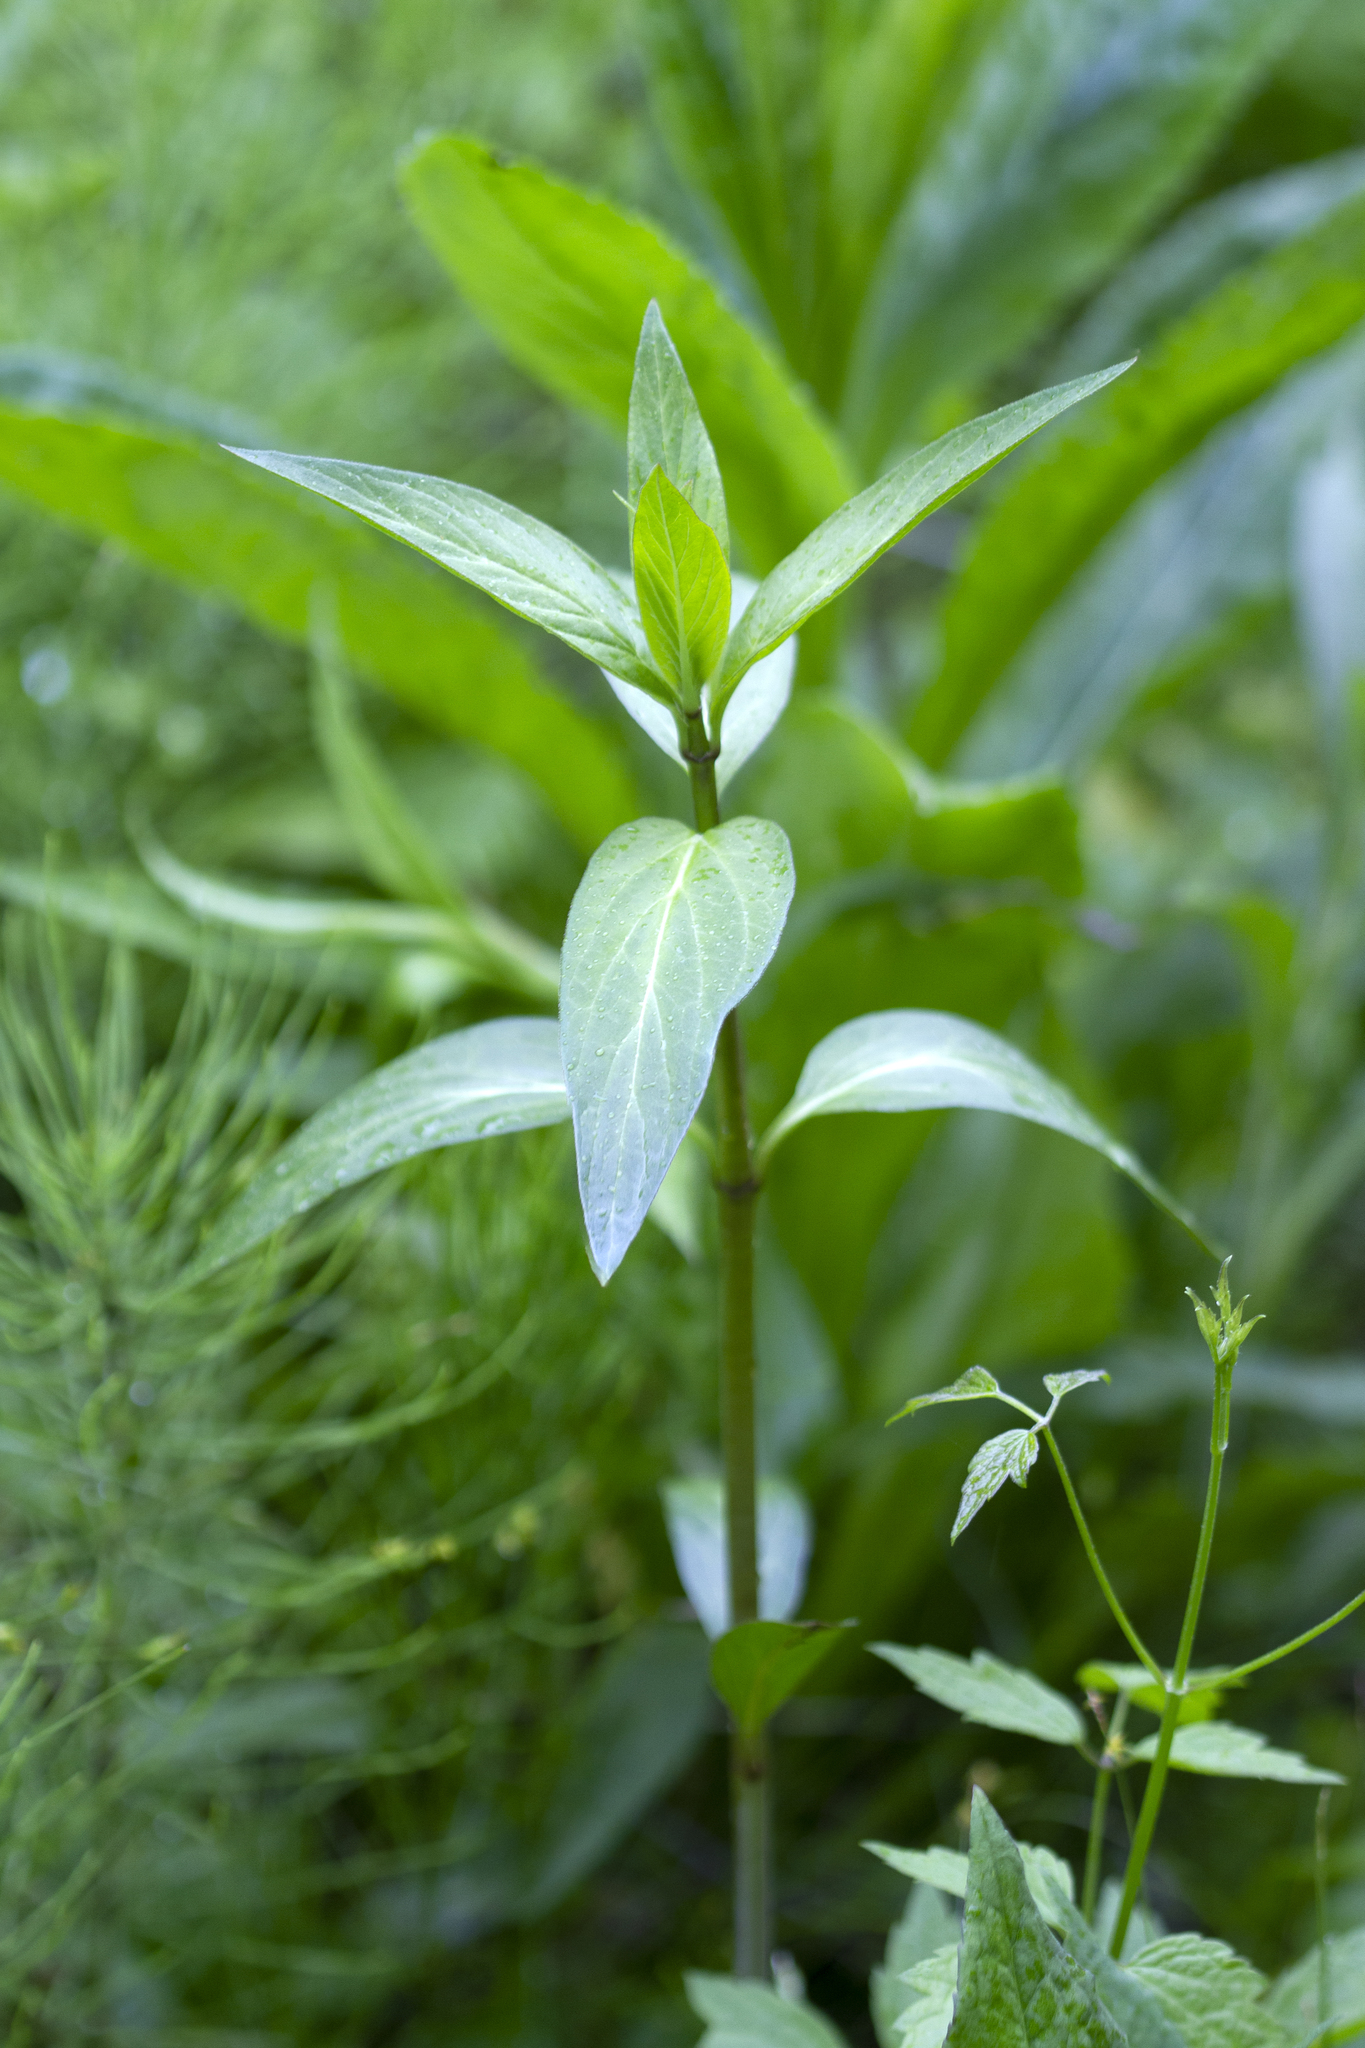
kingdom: Plantae
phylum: Tracheophyta
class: Magnoliopsida
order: Gentianales
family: Apocynaceae
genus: Asclepias
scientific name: Asclepias incarnata
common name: Swamp milkweed
